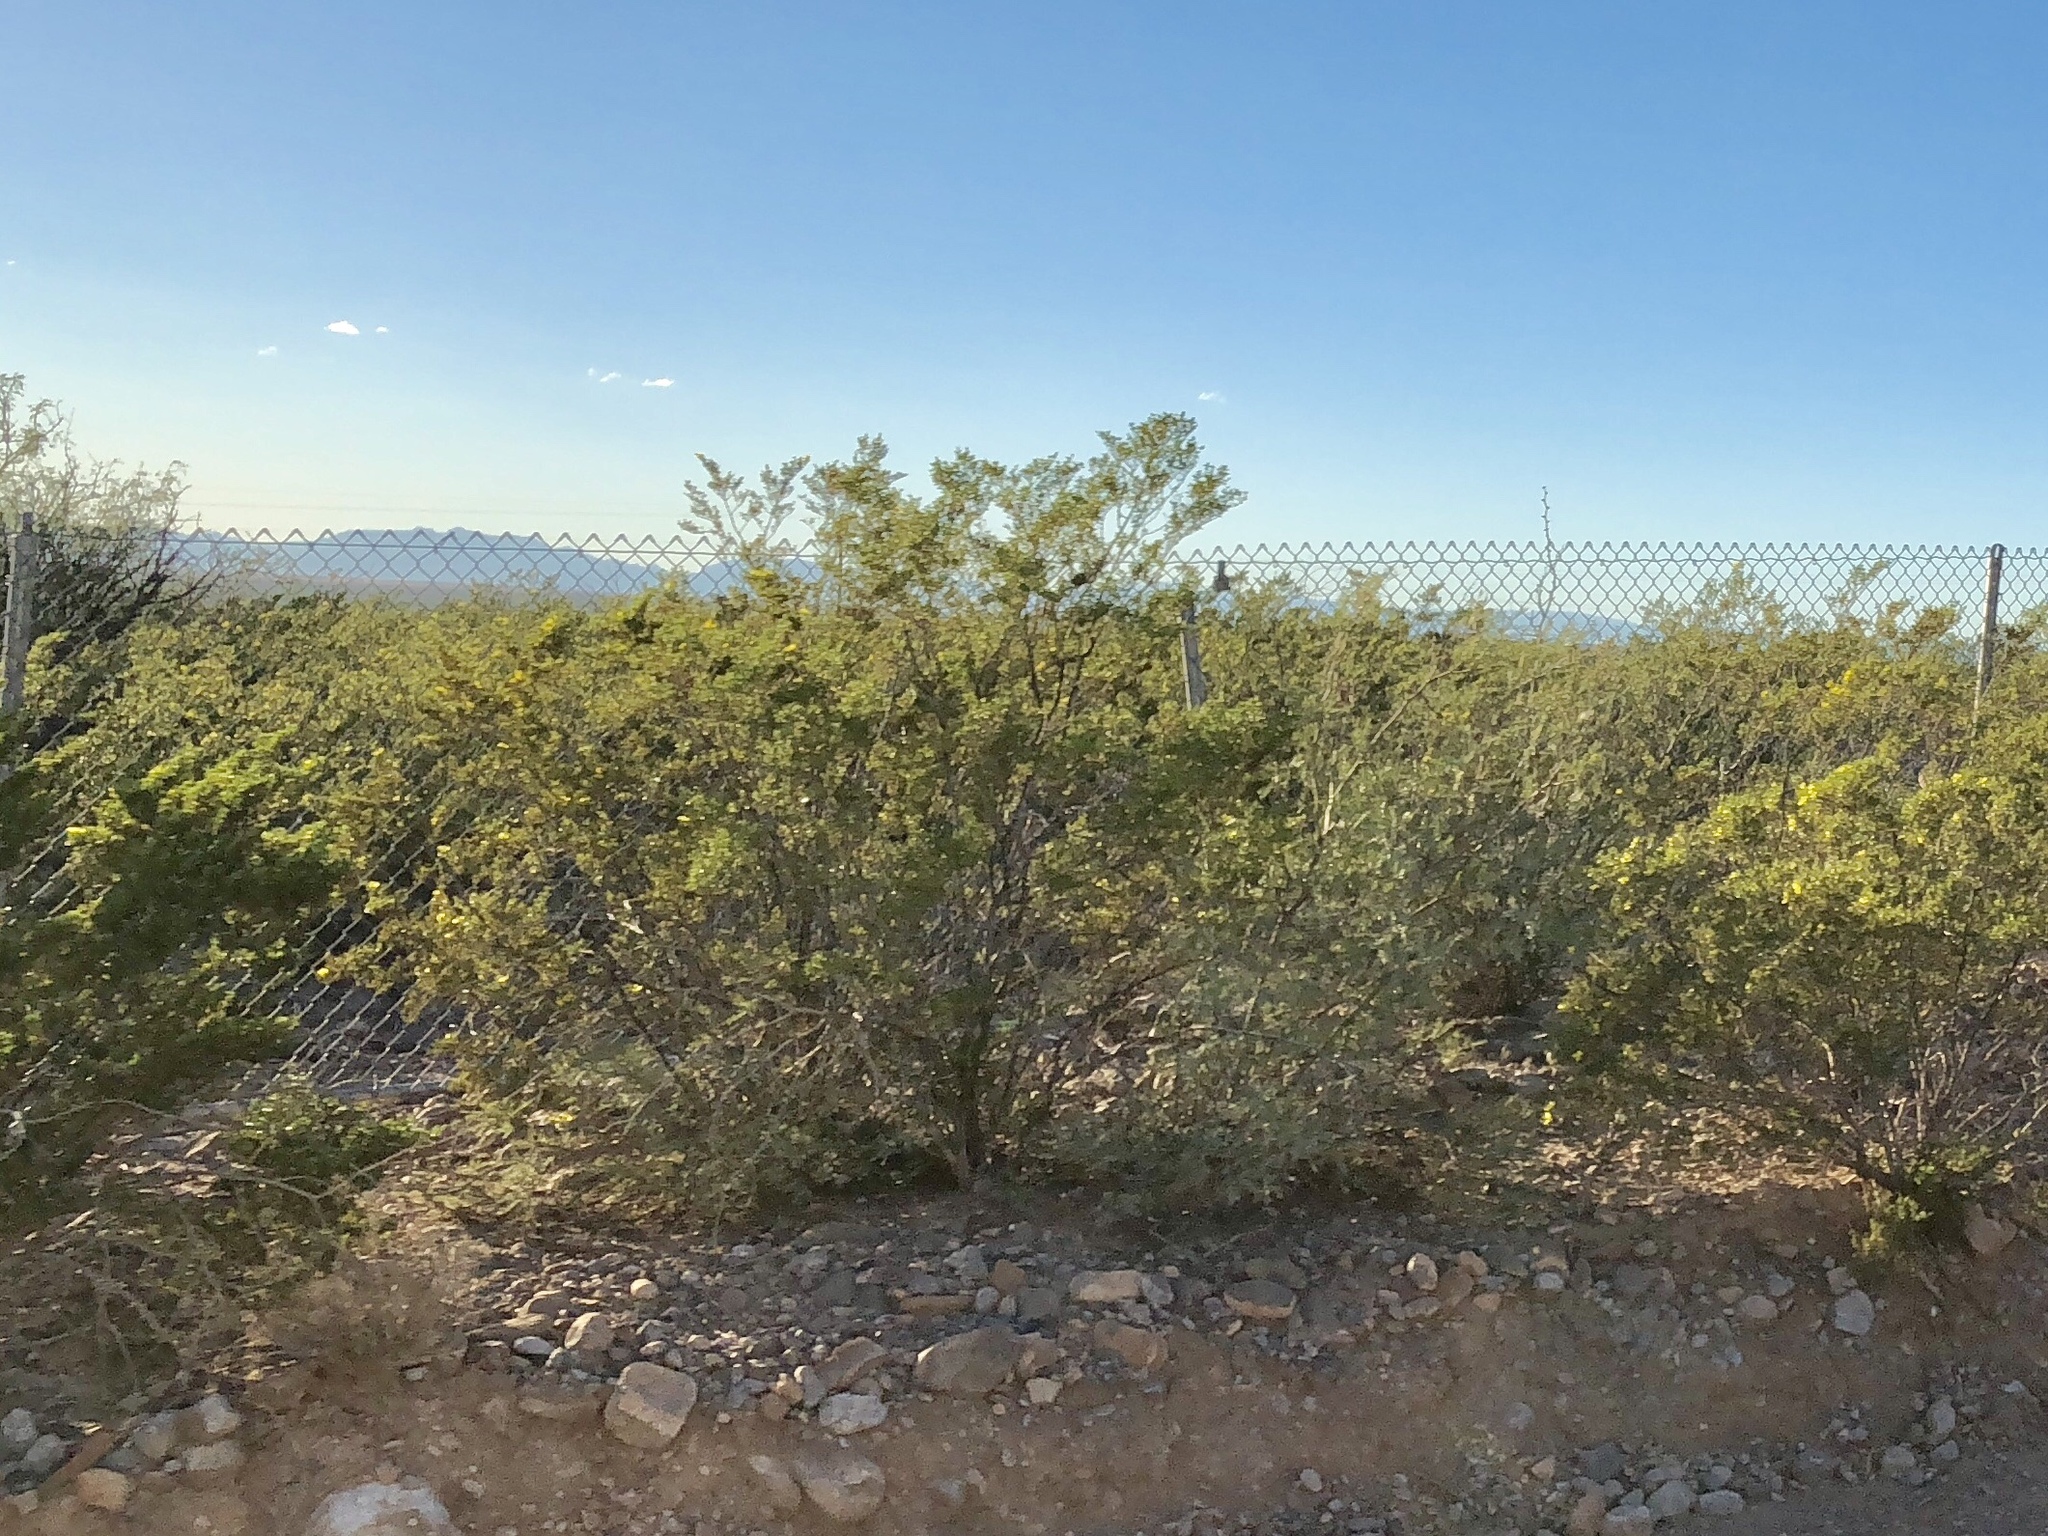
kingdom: Plantae
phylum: Tracheophyta
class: Magnoliopsida
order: Zygophyllales
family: Zygophyllaceae
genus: Larrea
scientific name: Larrea tridentata
